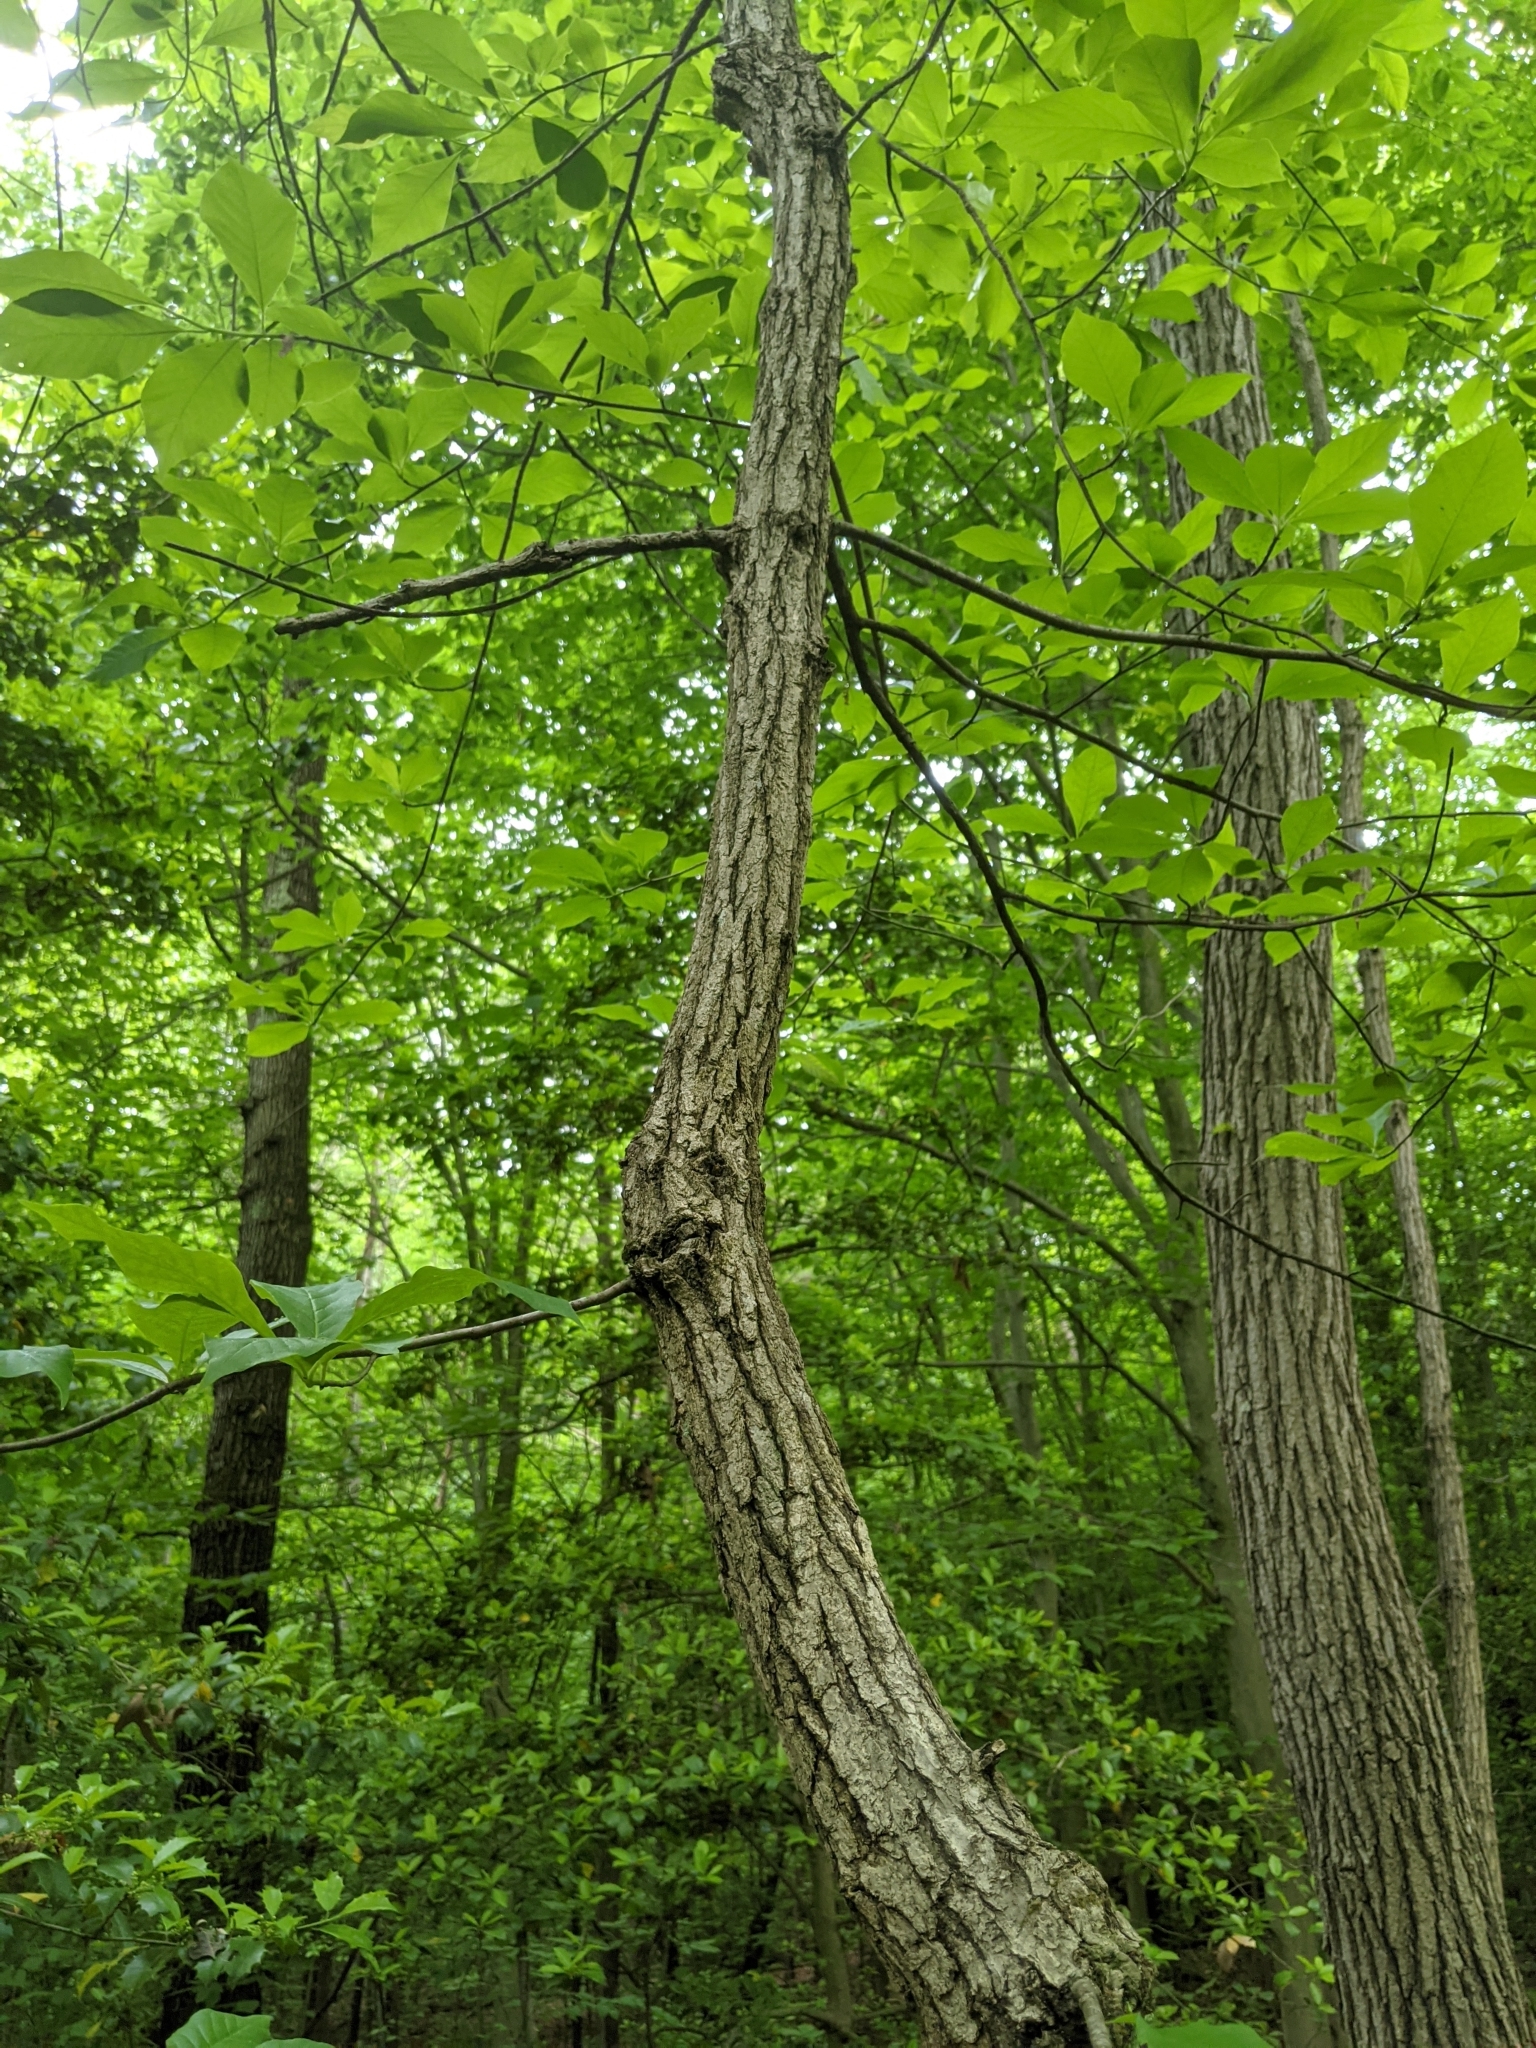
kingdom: Plantae
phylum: Tracheophyta
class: Magnoliopsida
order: Cornales
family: Nyssaceae
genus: Nyssa
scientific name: Nyssa sylvatica
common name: Black tupelo
